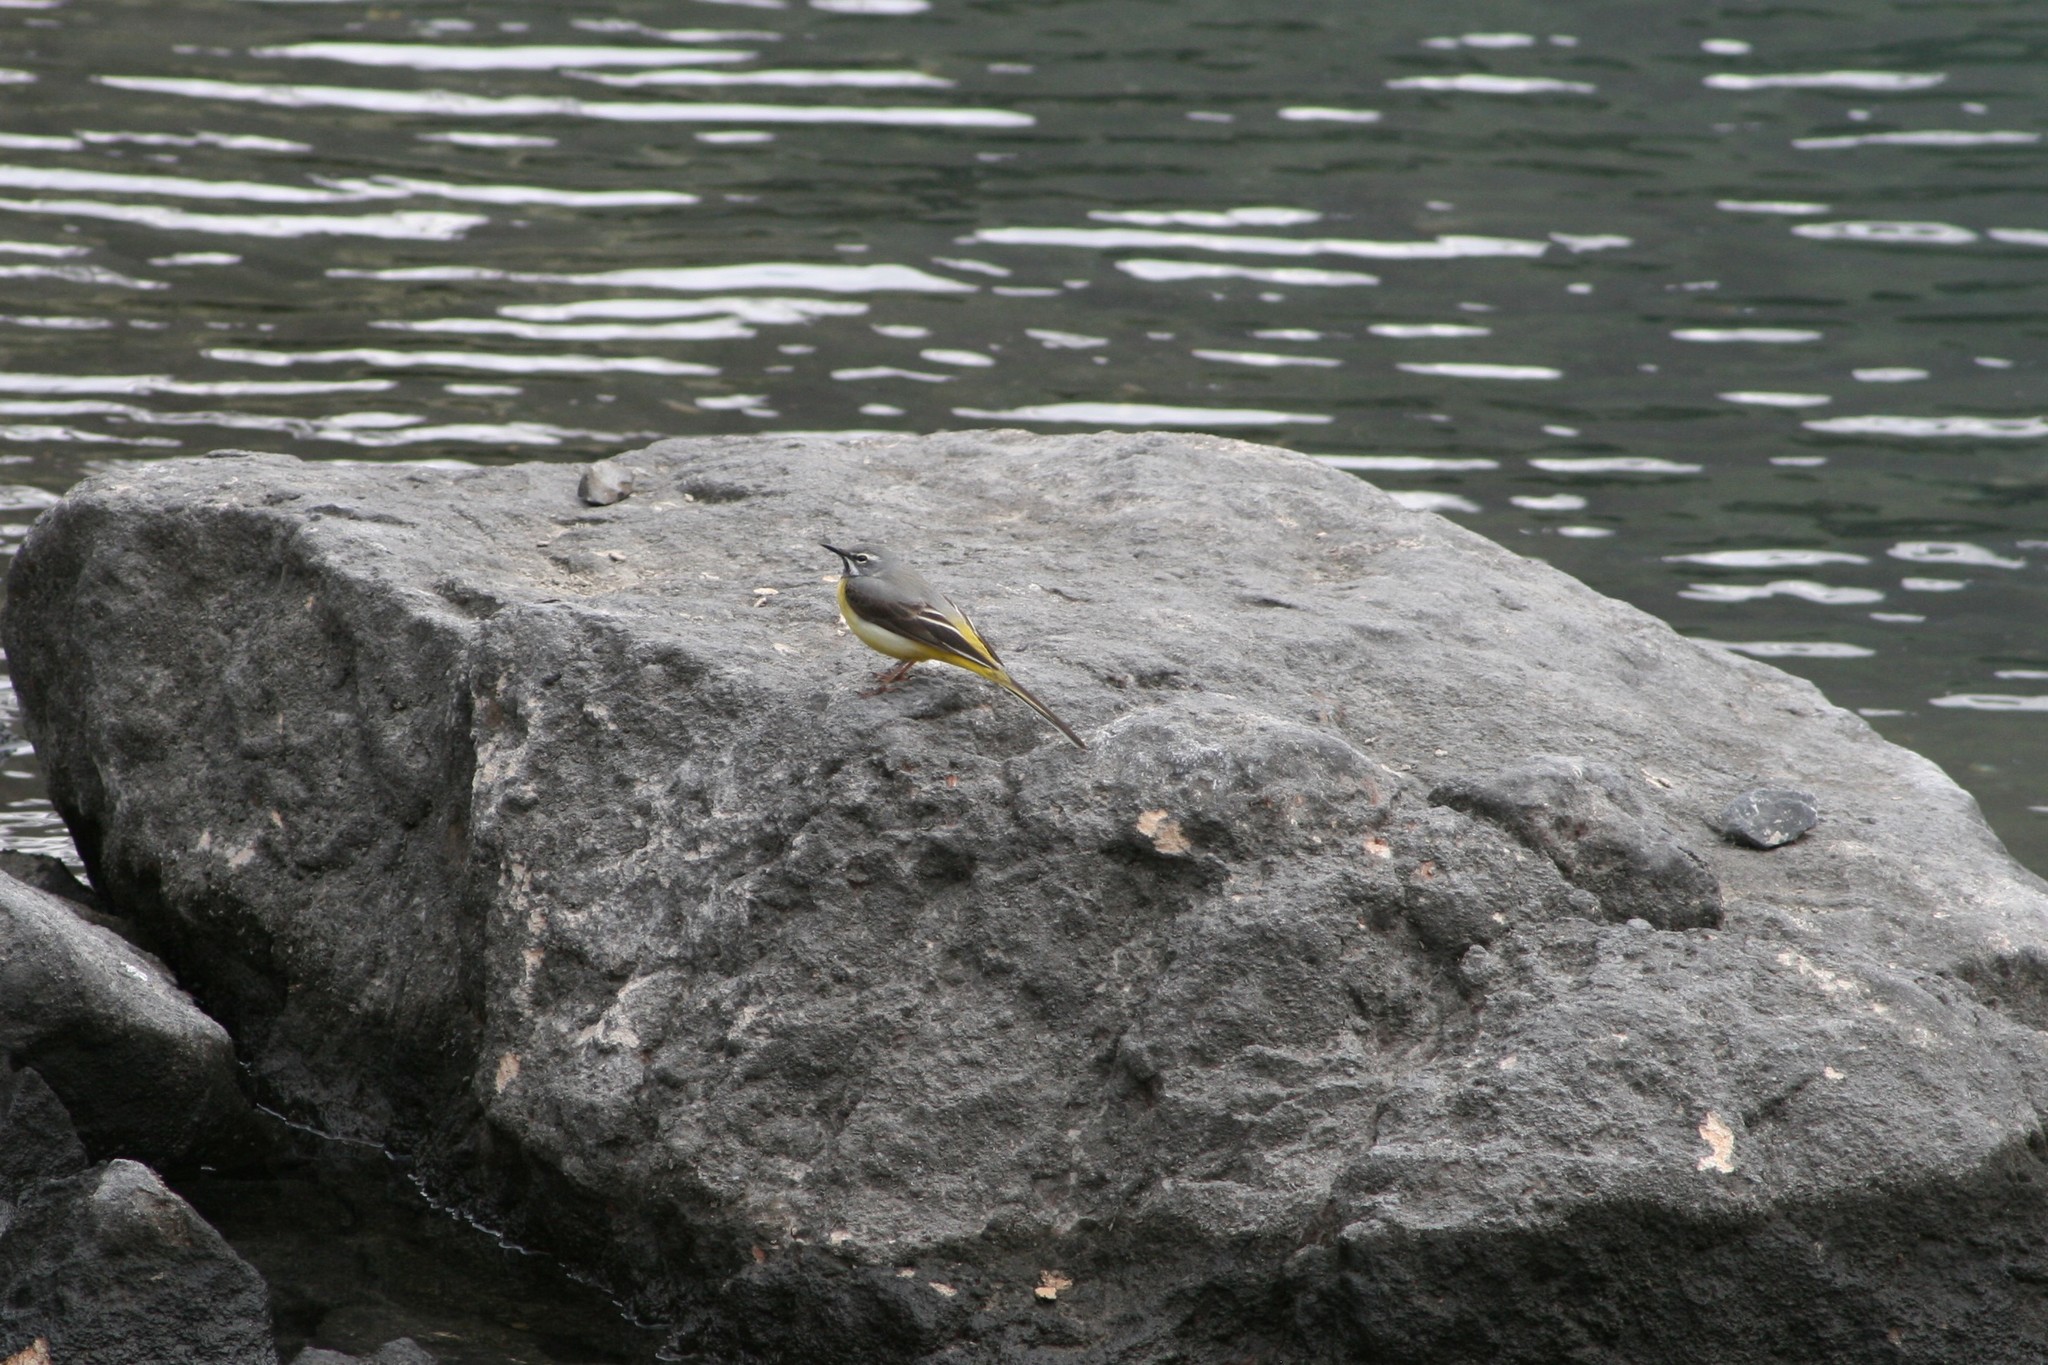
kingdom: Animalia
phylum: Chordata
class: Aves
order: Passeriformes
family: Motacillidae
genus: Motacilla
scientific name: Motacilla cinerea
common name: Grey wagtail
